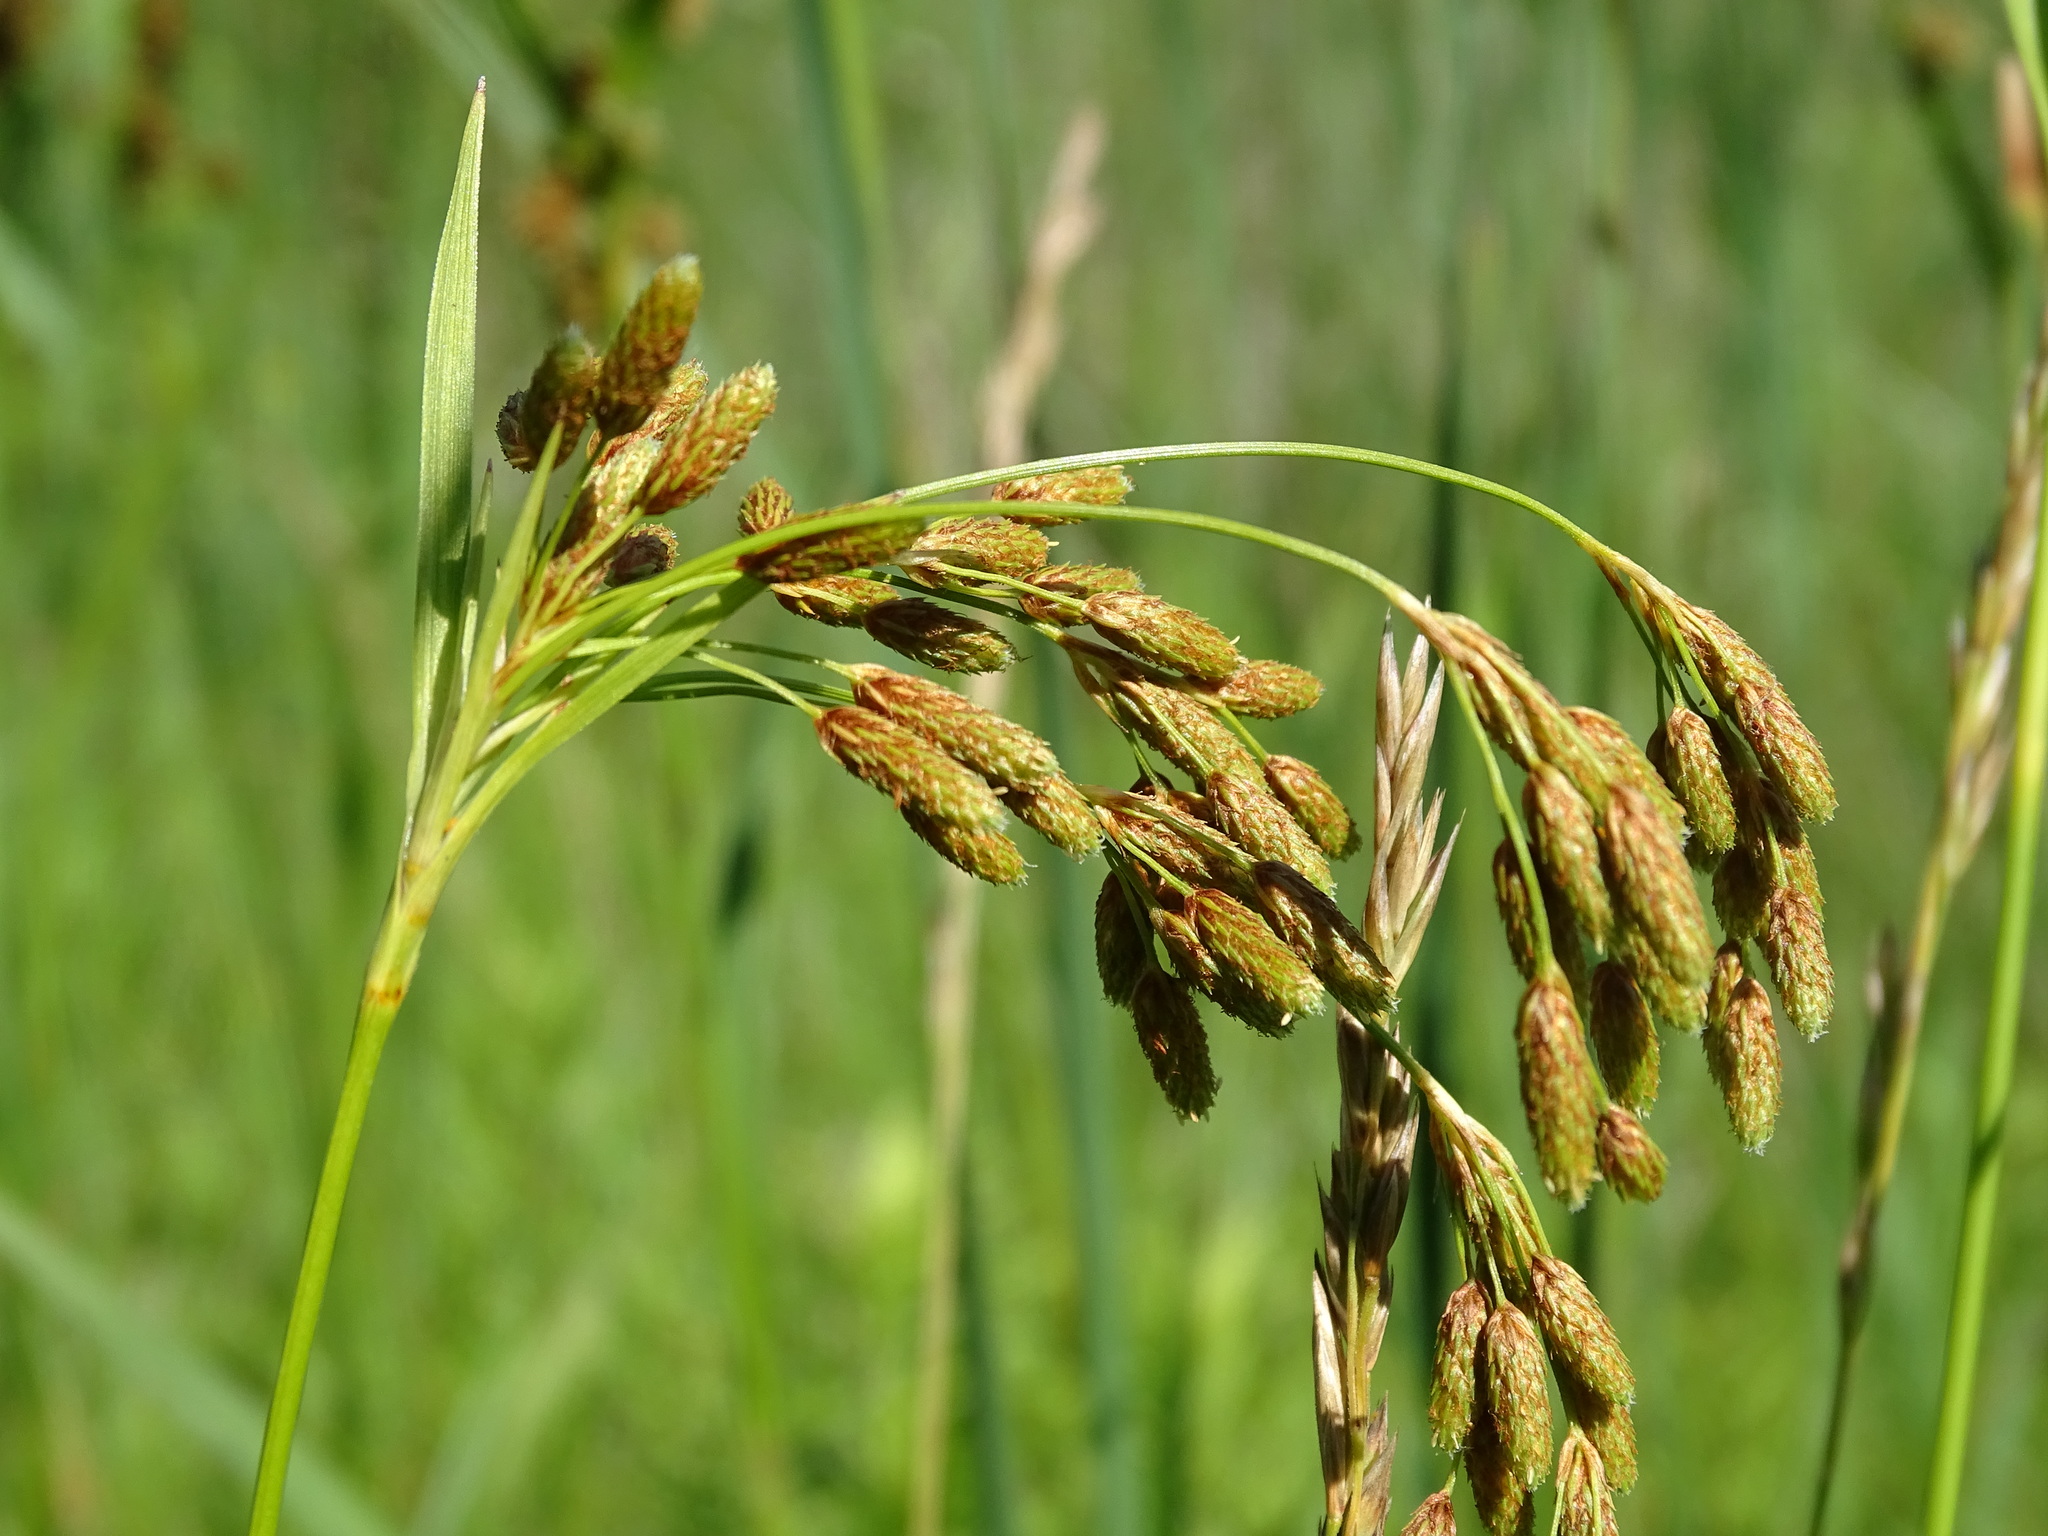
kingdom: Plantae
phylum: Tracheophyta
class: Liliopsida
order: Poales
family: Cyperaceae
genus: Scirpus
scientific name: Scirpus pendulus
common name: Nodding bulrush
